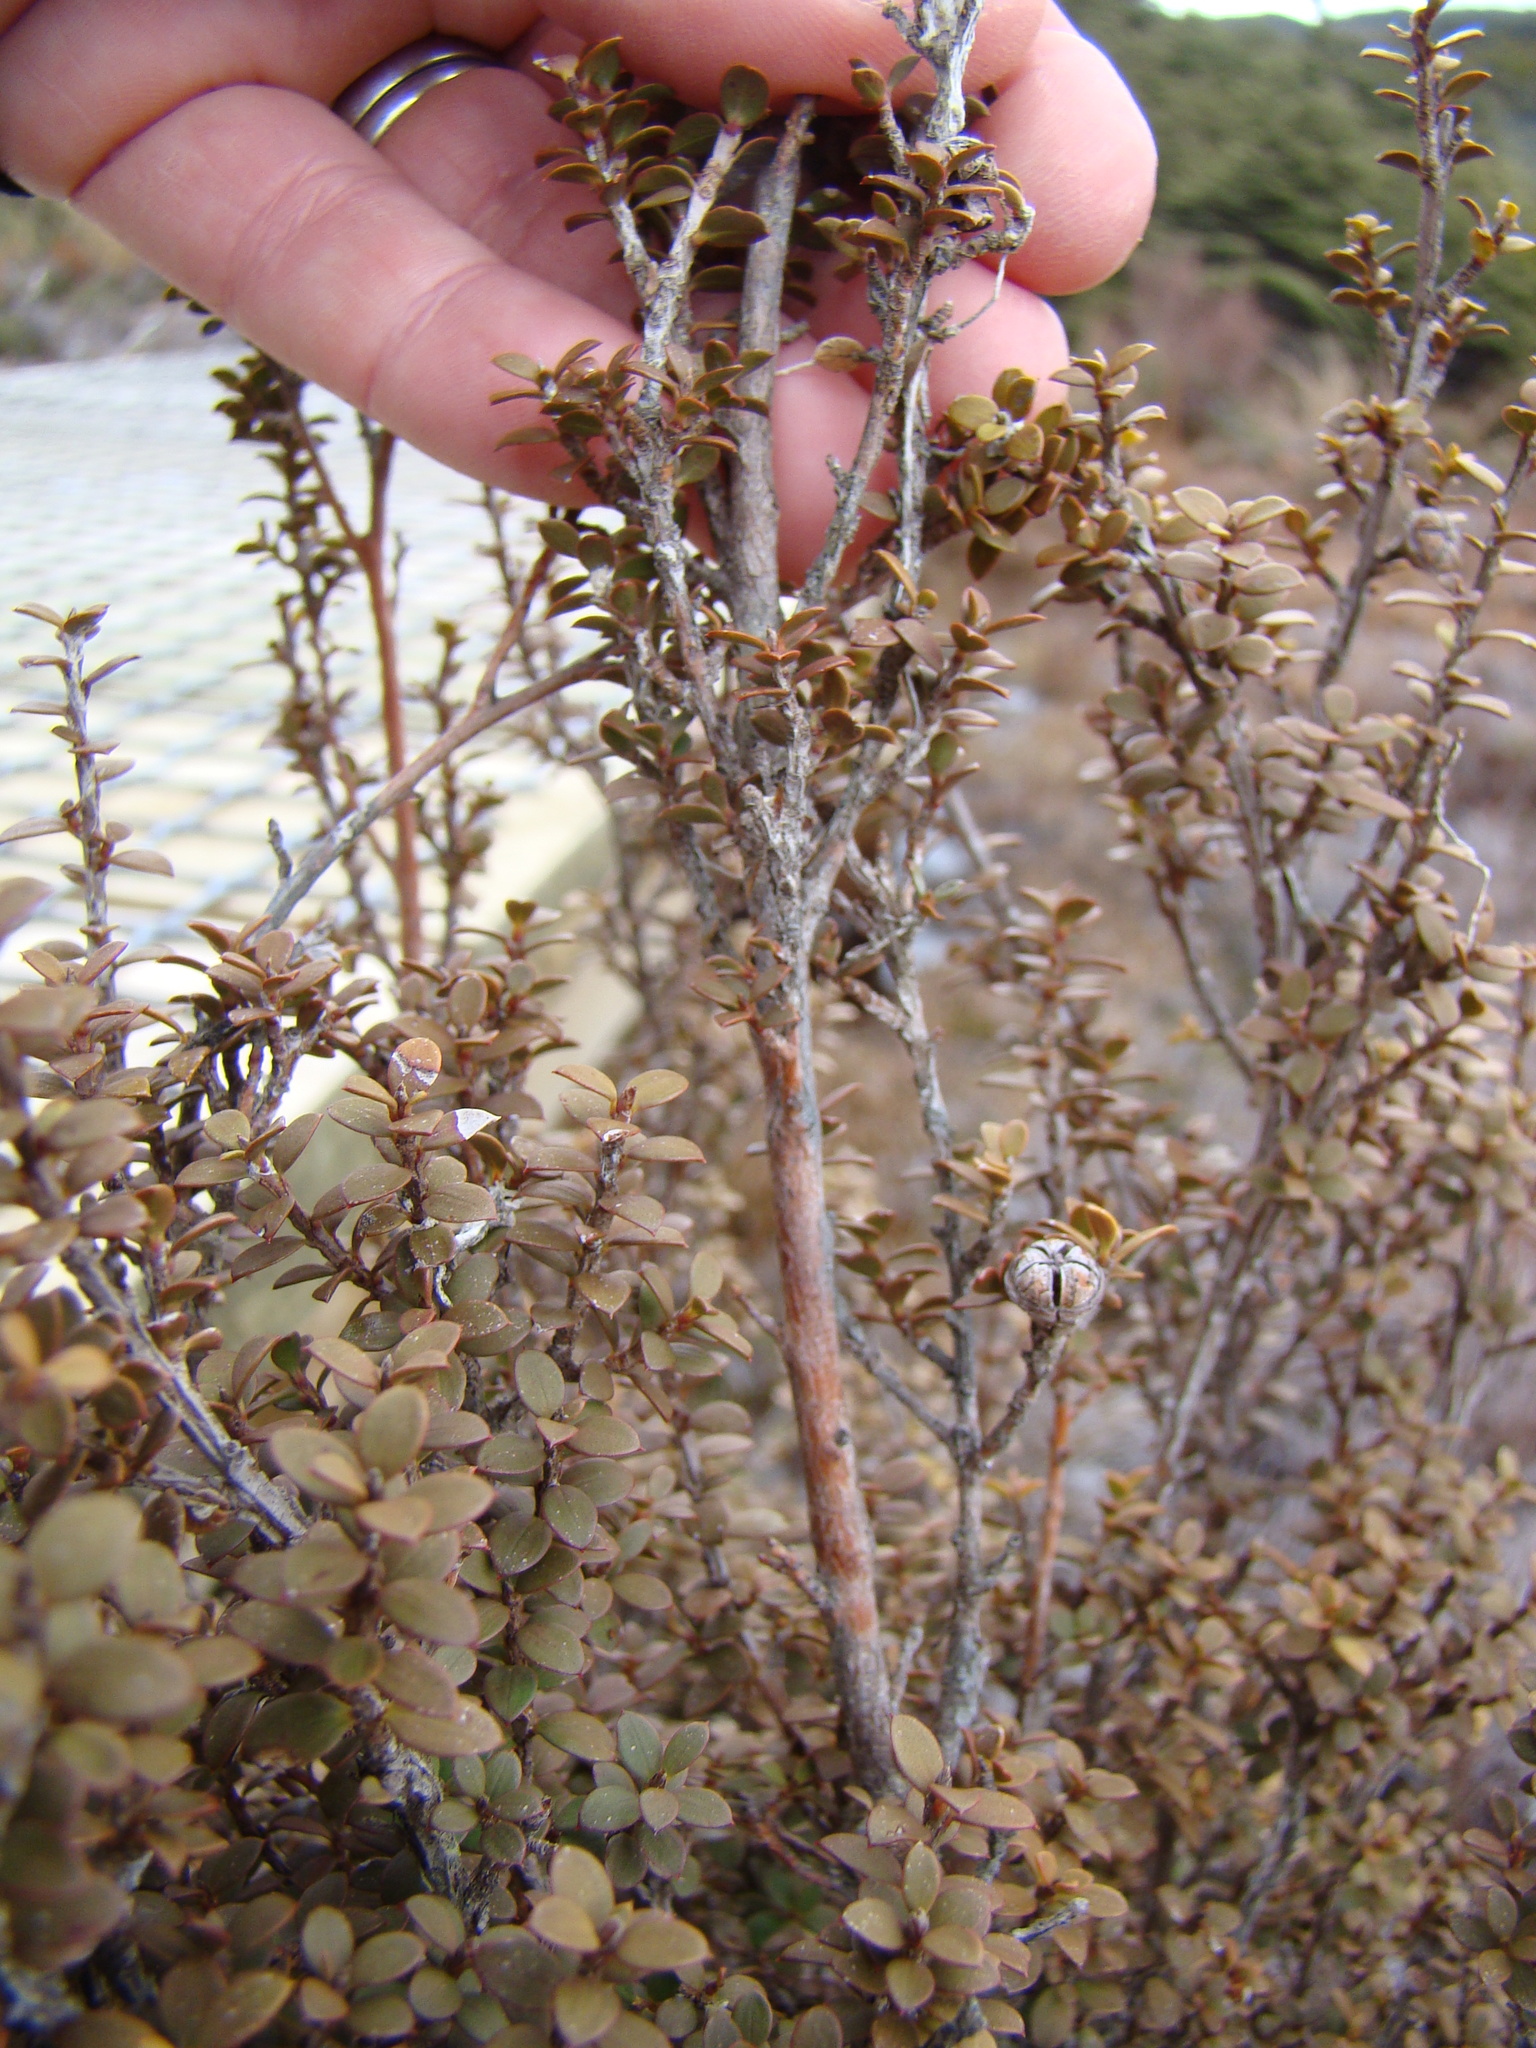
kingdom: Plantae
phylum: Tracheophyta
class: Magnoliopsida
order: Myrtales
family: Myrtaceae
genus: Leptospermum
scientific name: Leptospermum scoparium
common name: Broom tea-tree
